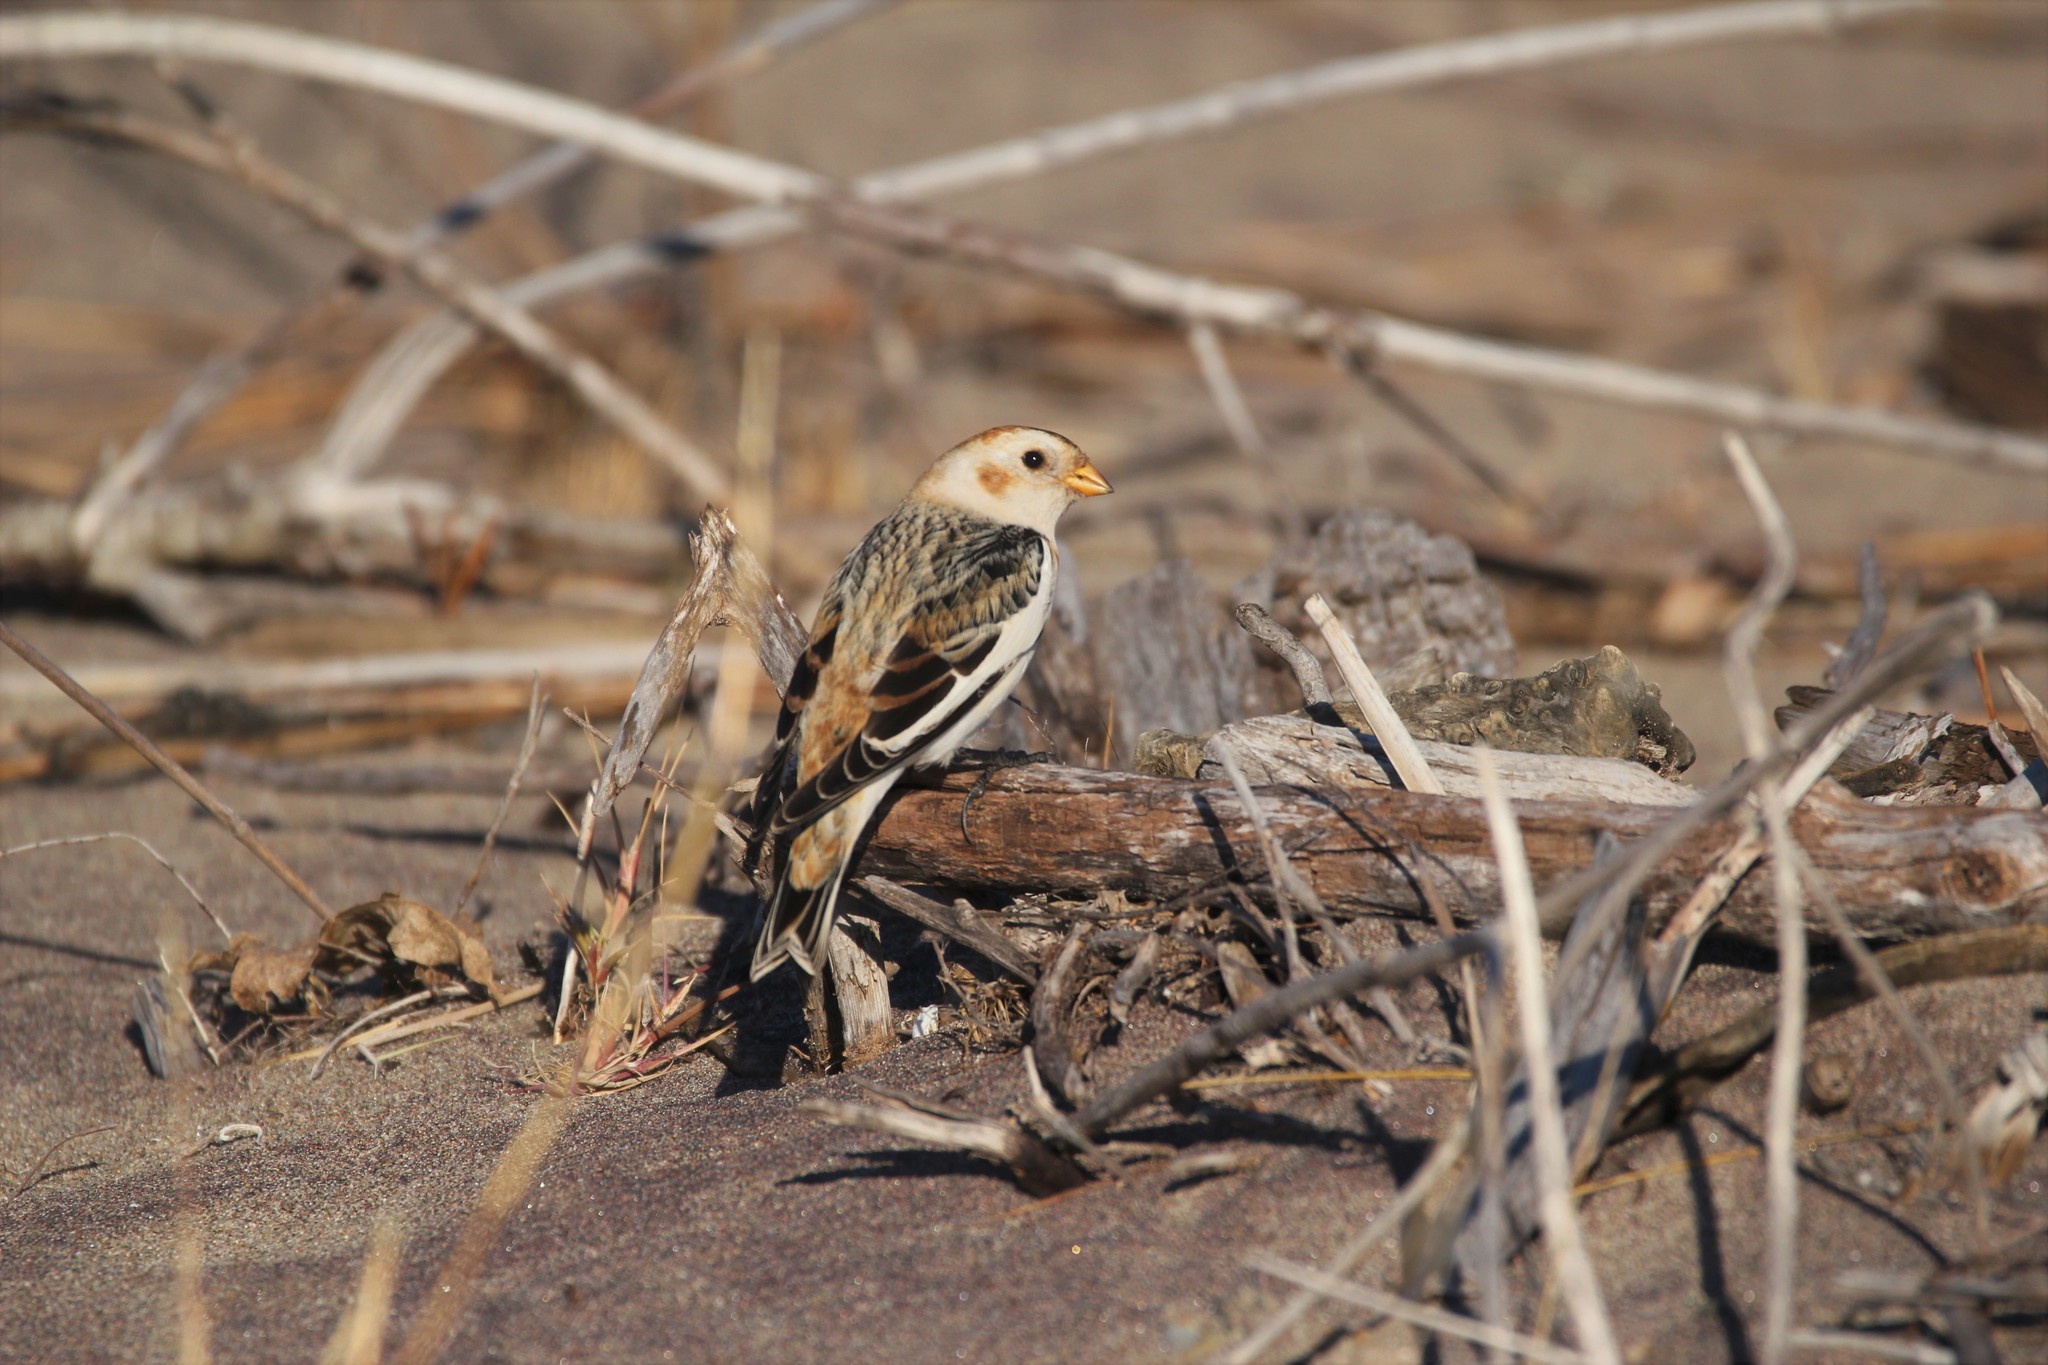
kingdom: Animalia
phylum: Chordata
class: Aves
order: Passeriformes
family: Calcariidae
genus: Plectrophenax
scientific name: Plectrophenax nivalis
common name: Snow bunting
